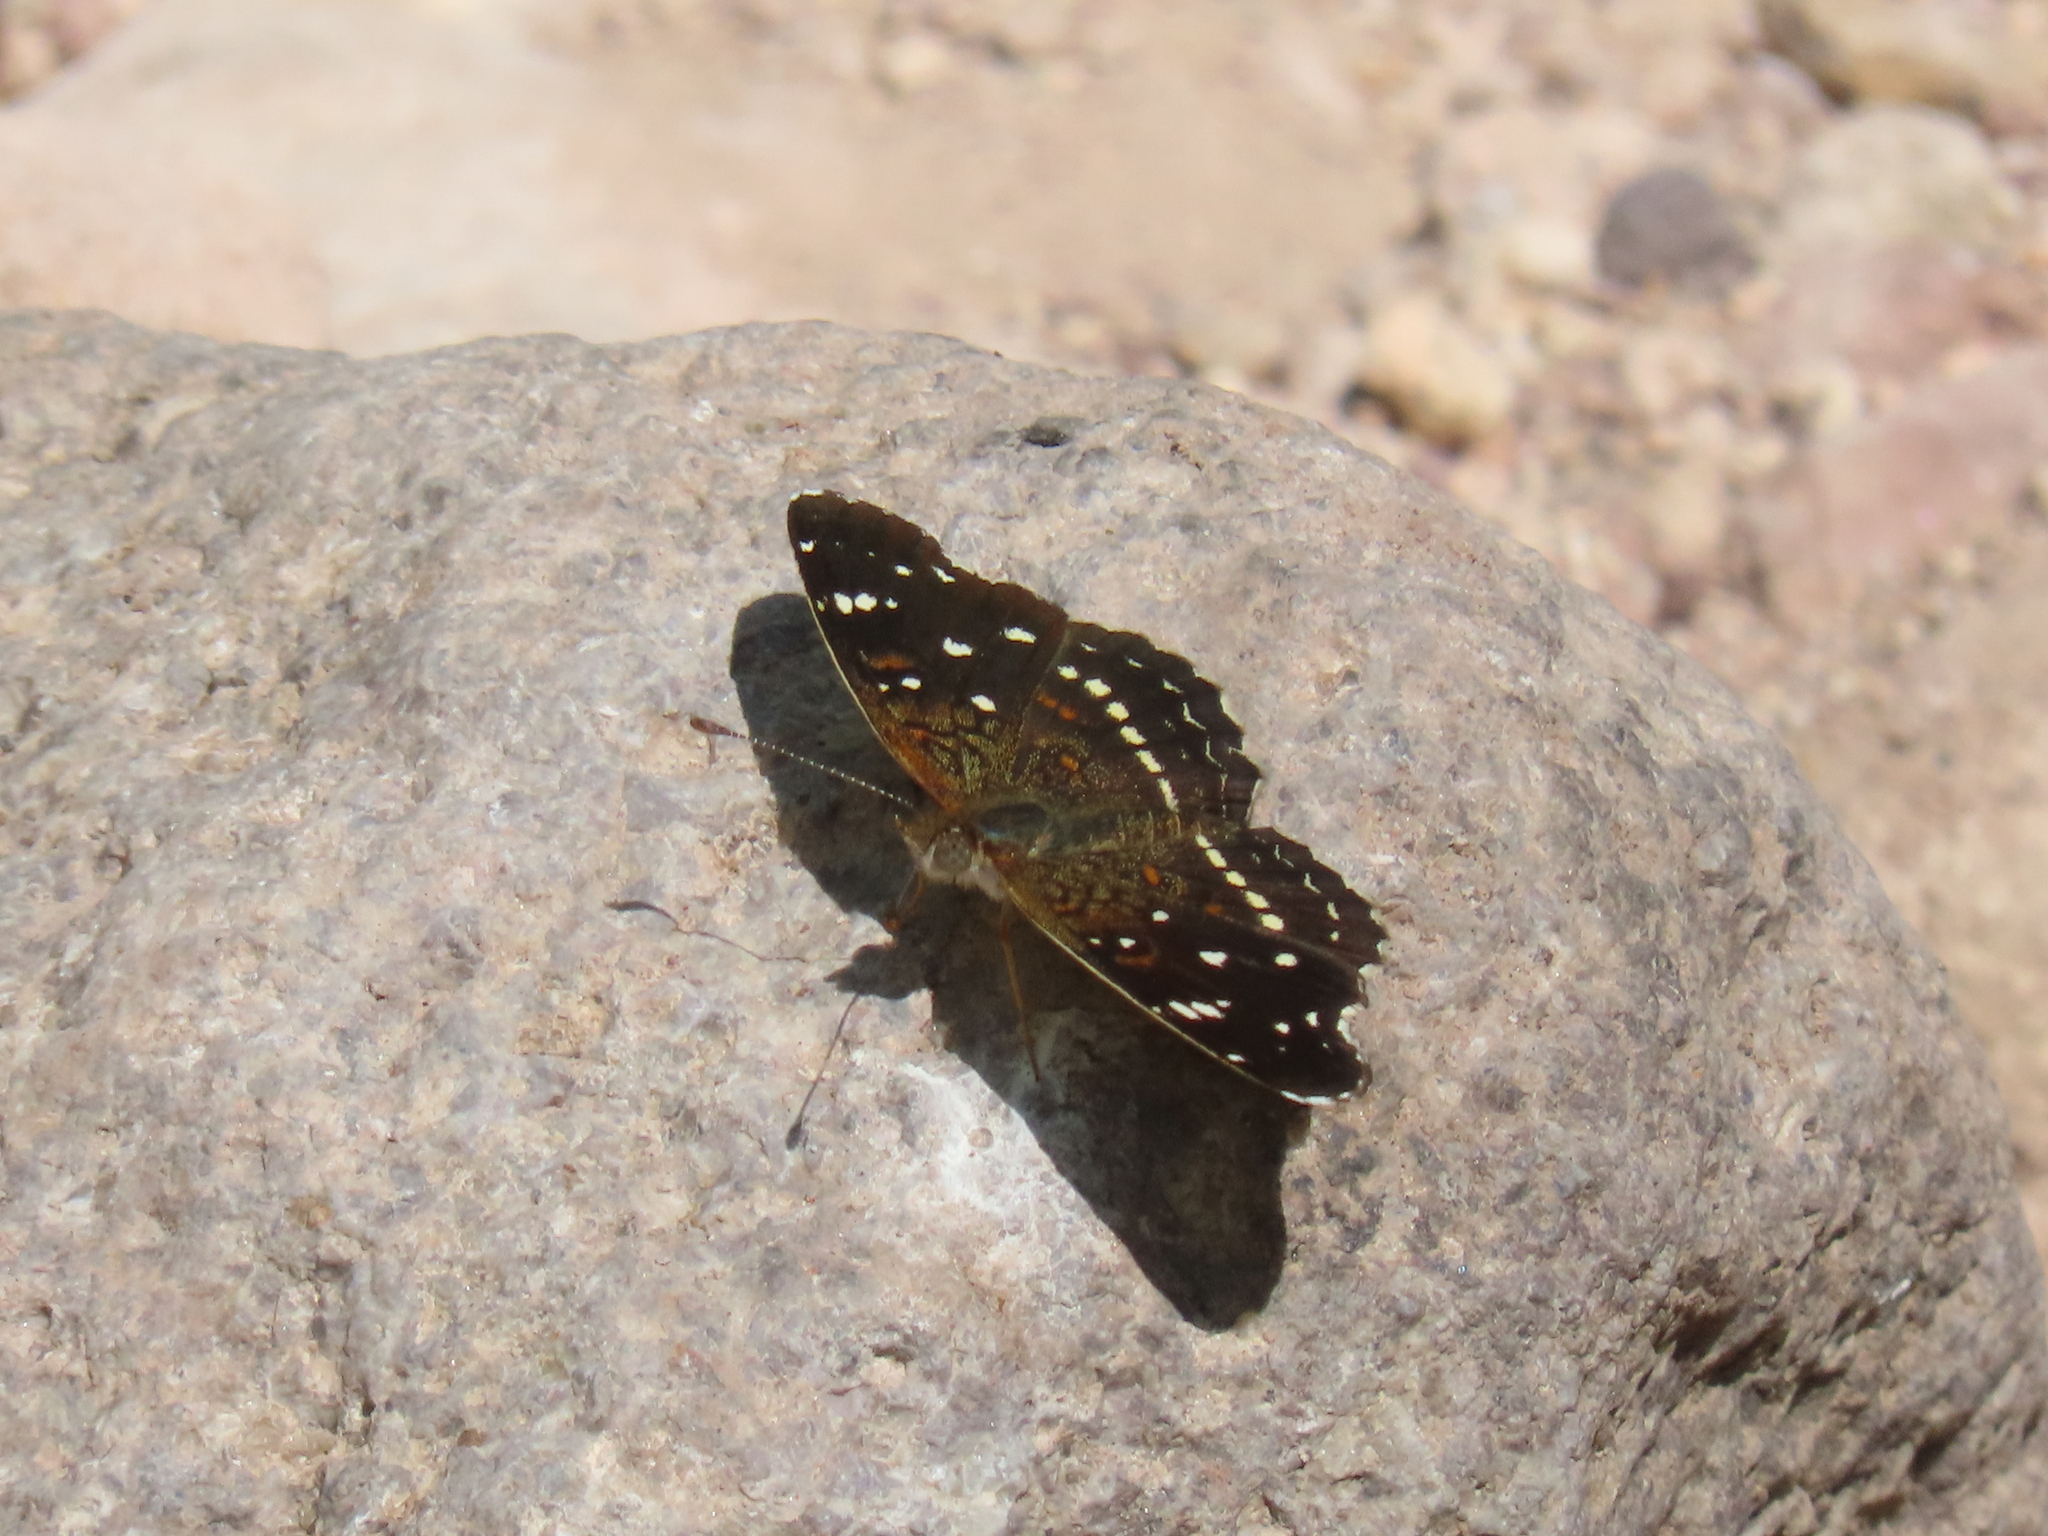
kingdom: Animalia
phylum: Arthropoda
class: Insecta
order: Lepidoptera
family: Nymphalidae
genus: Anthanassa
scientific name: Anthanassa texana
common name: Texan crescent
